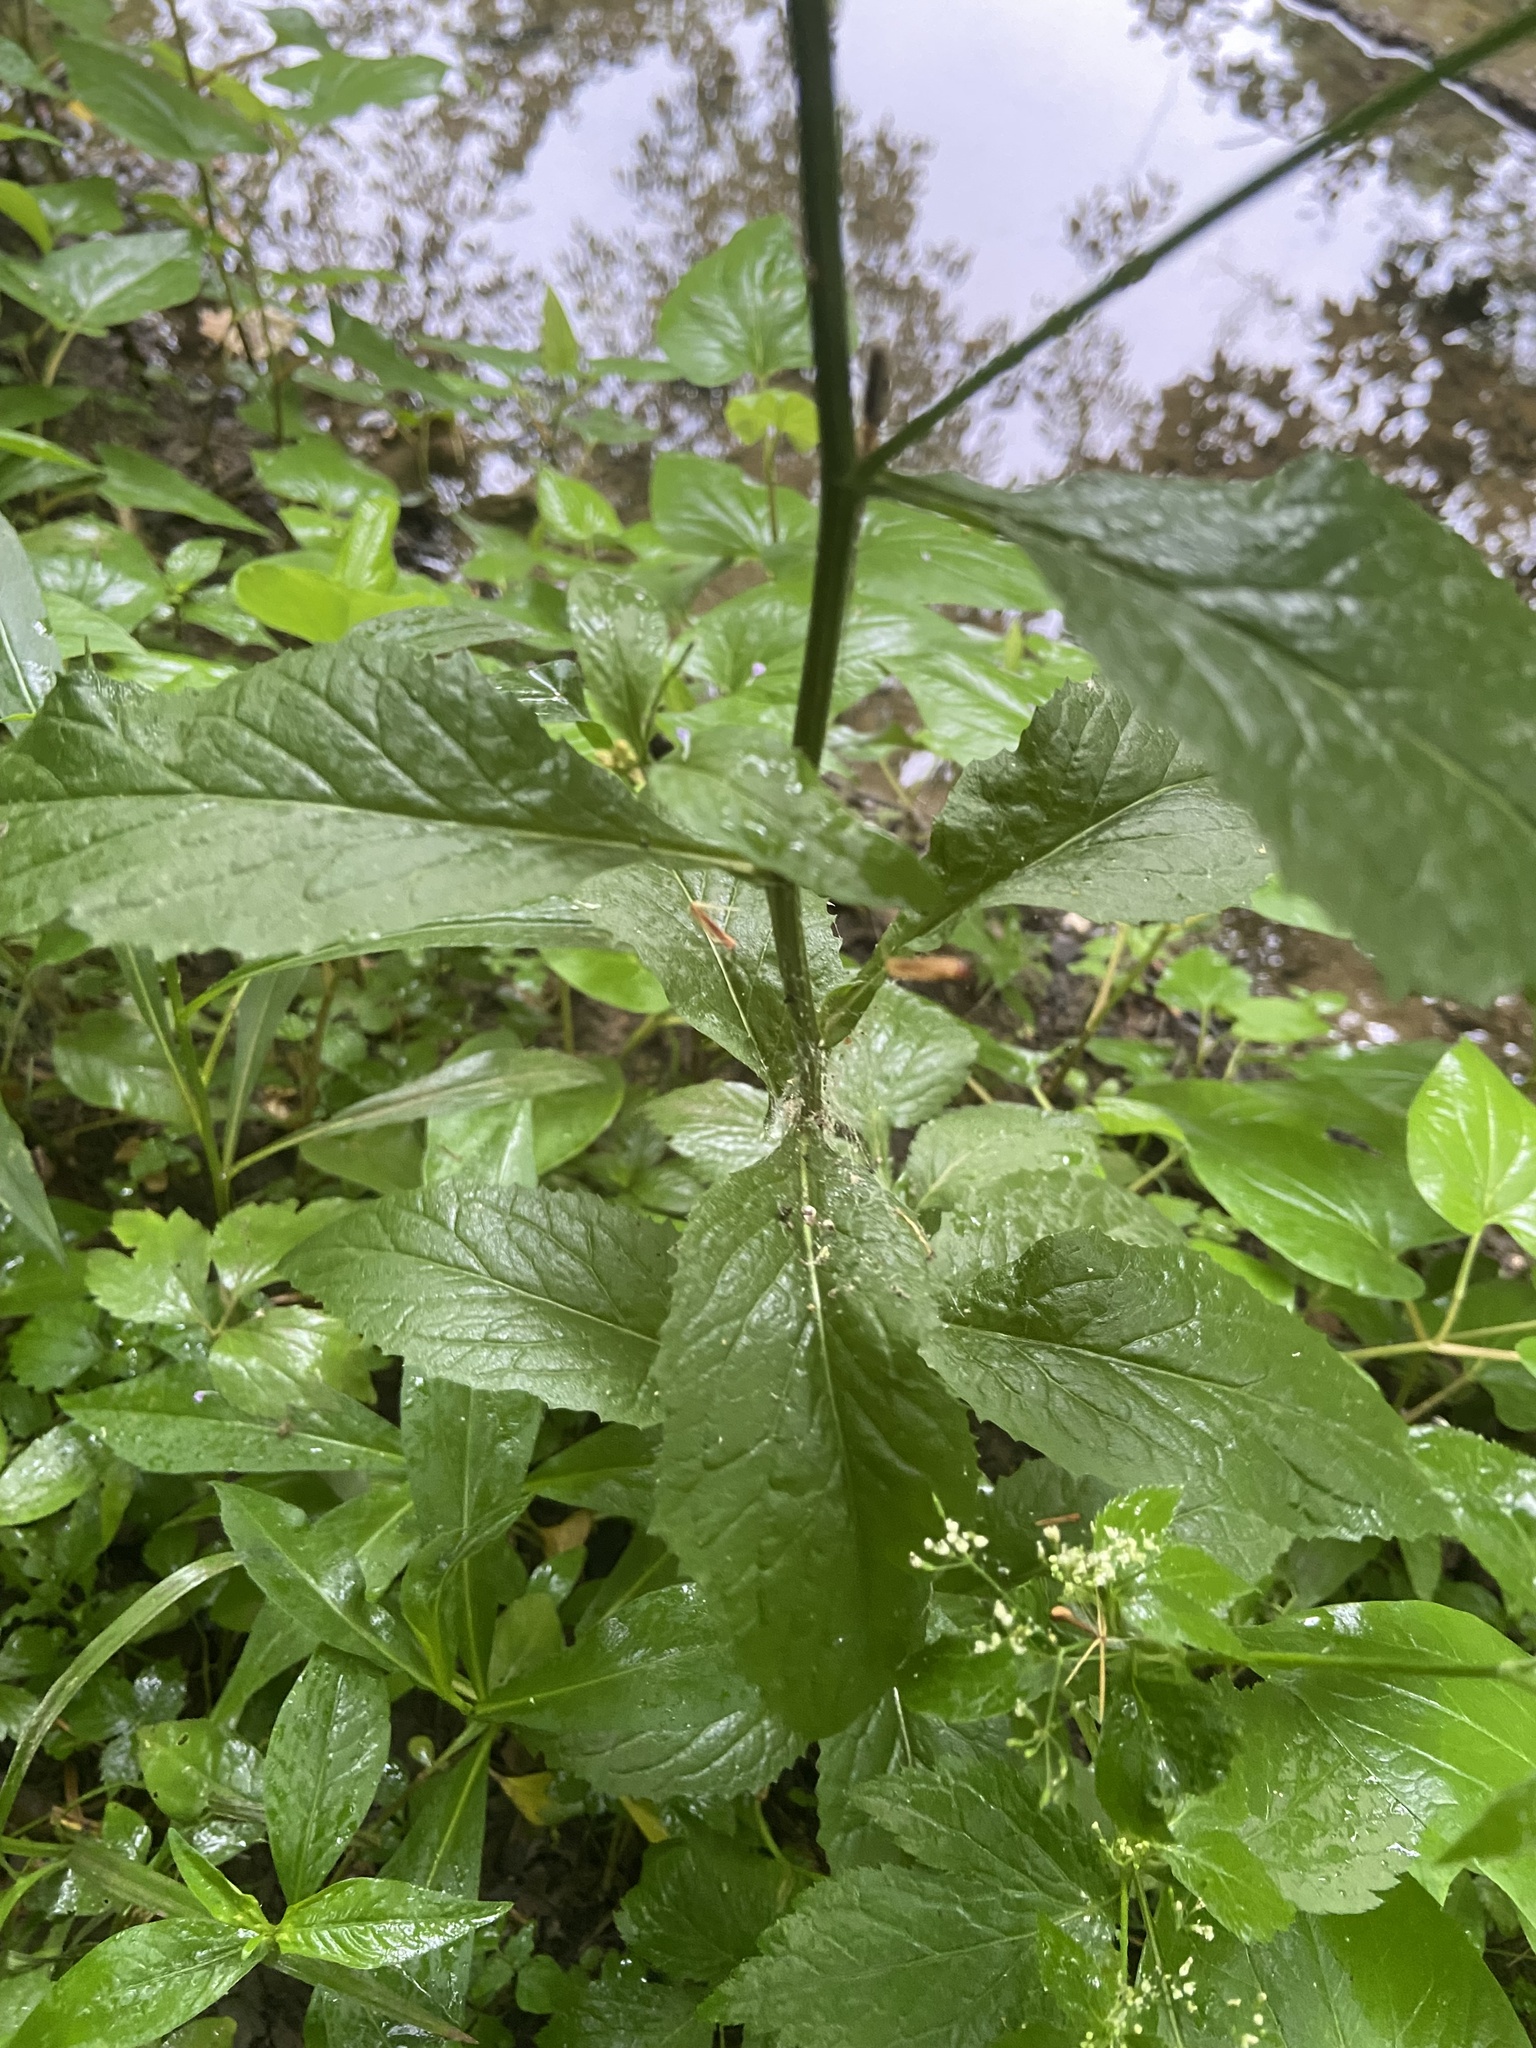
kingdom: Plantae
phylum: Tracheophyta
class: Magnoliopsida
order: Brassicales
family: Brassicaceae
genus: Iodanthus
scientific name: Iodanthus pinnatifidus
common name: Violet rocket
